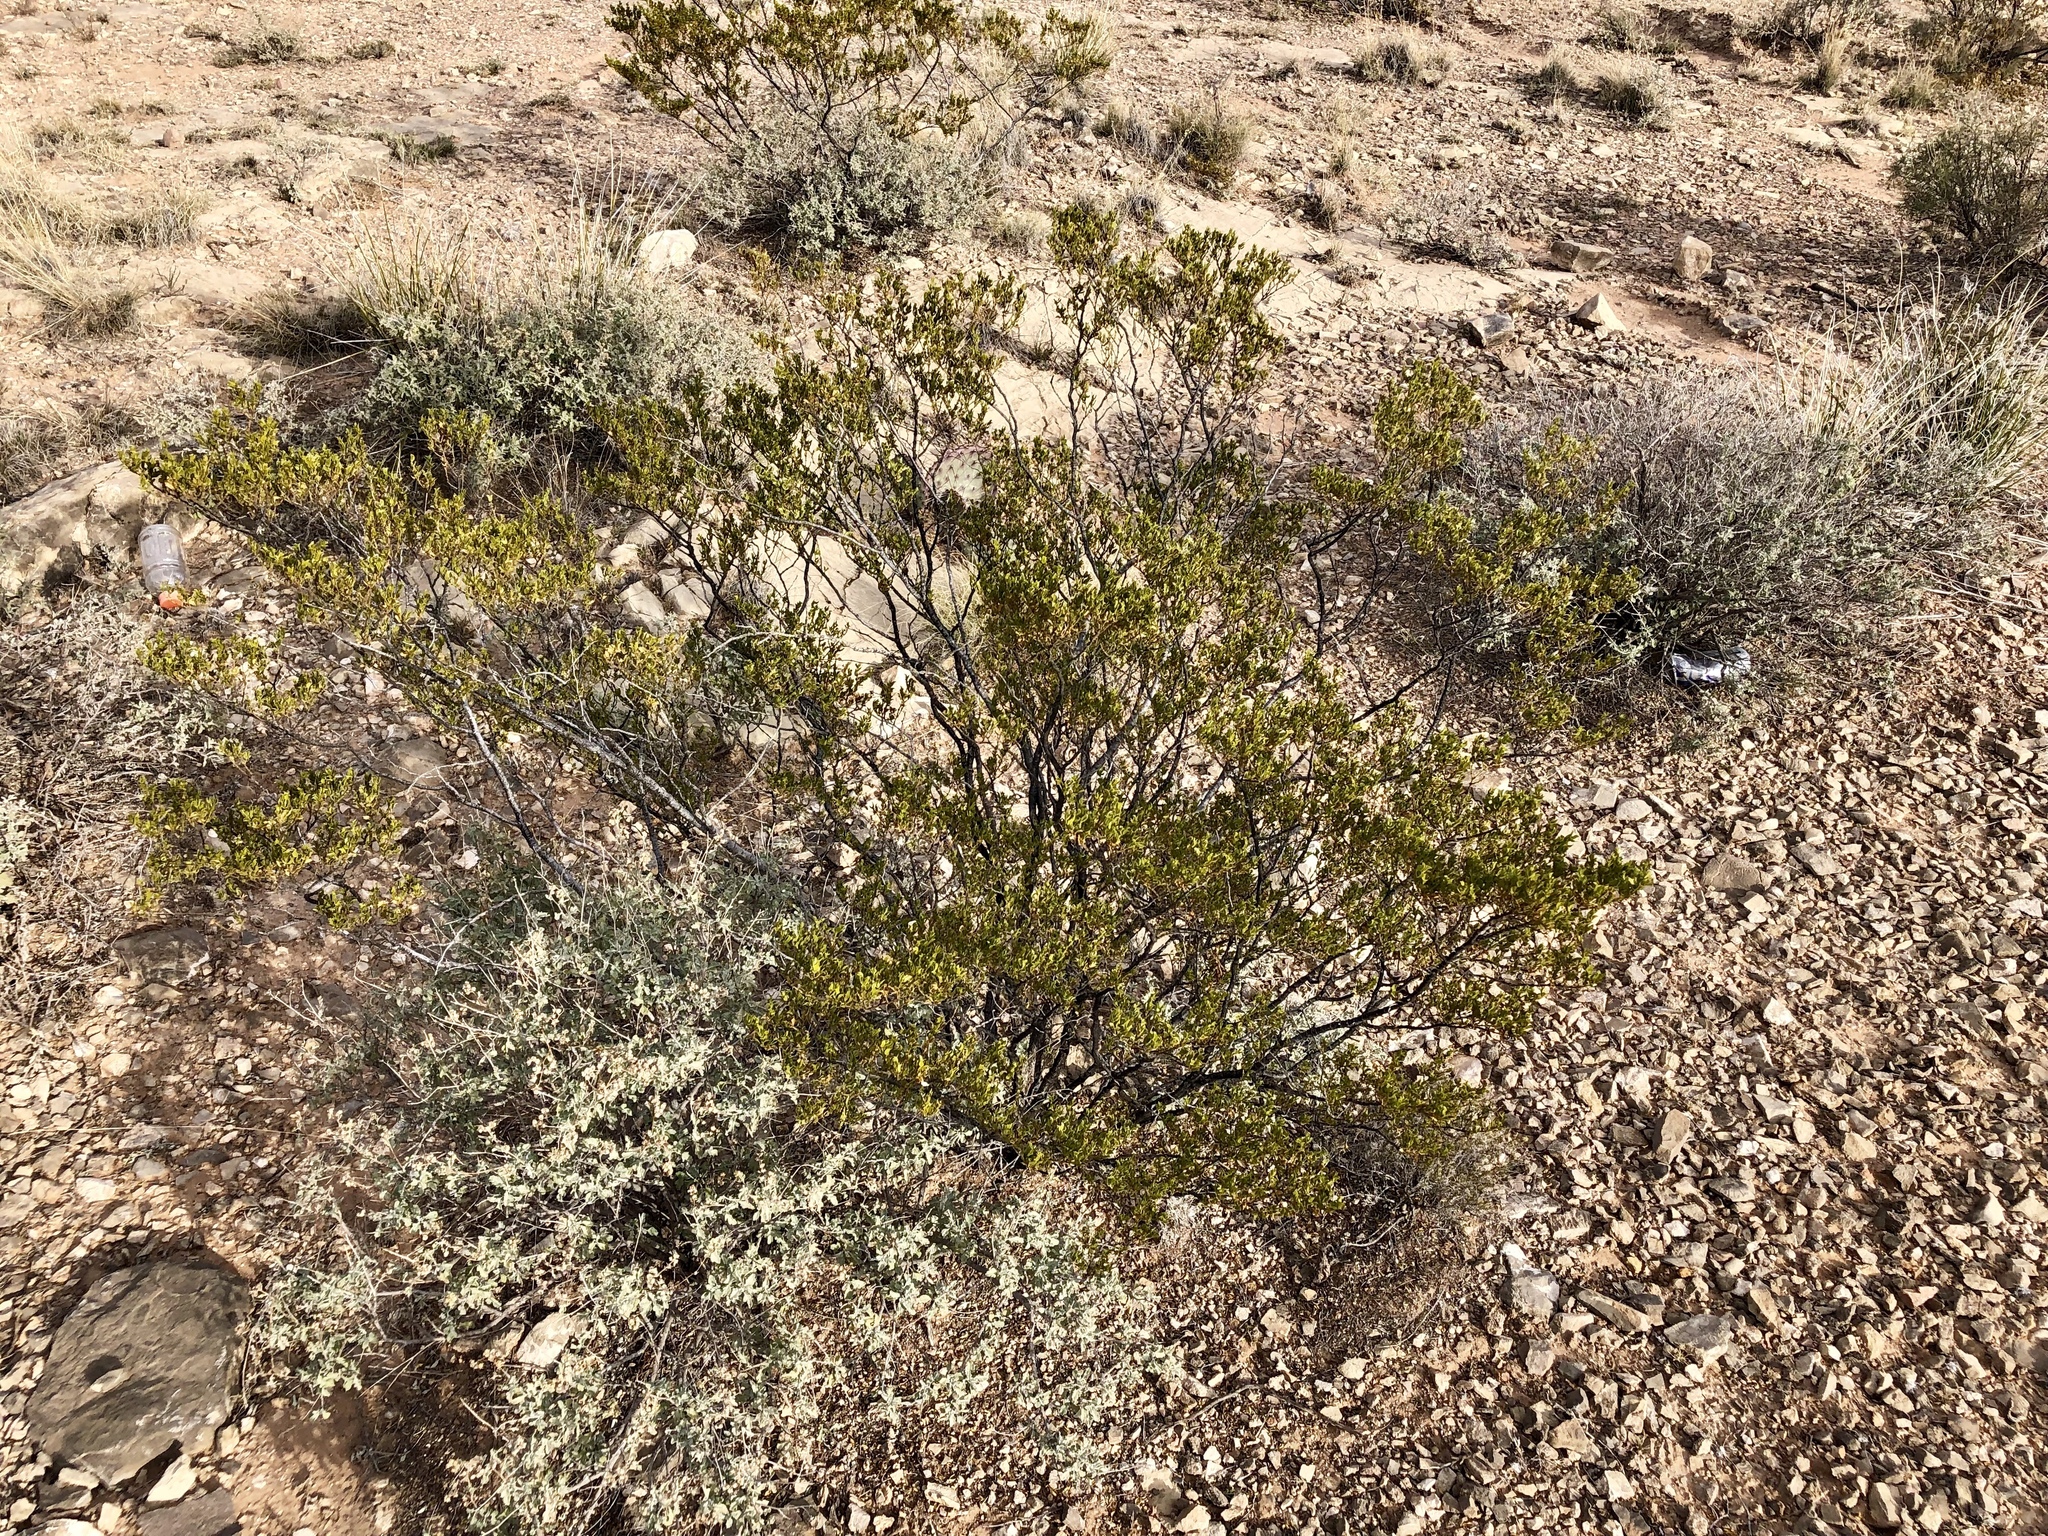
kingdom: Plantae
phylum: Tracheophyta
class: Magnoliopsida
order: Zygophyllales
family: Zygophyllaceae
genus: Larrea
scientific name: Larrea tridentata
